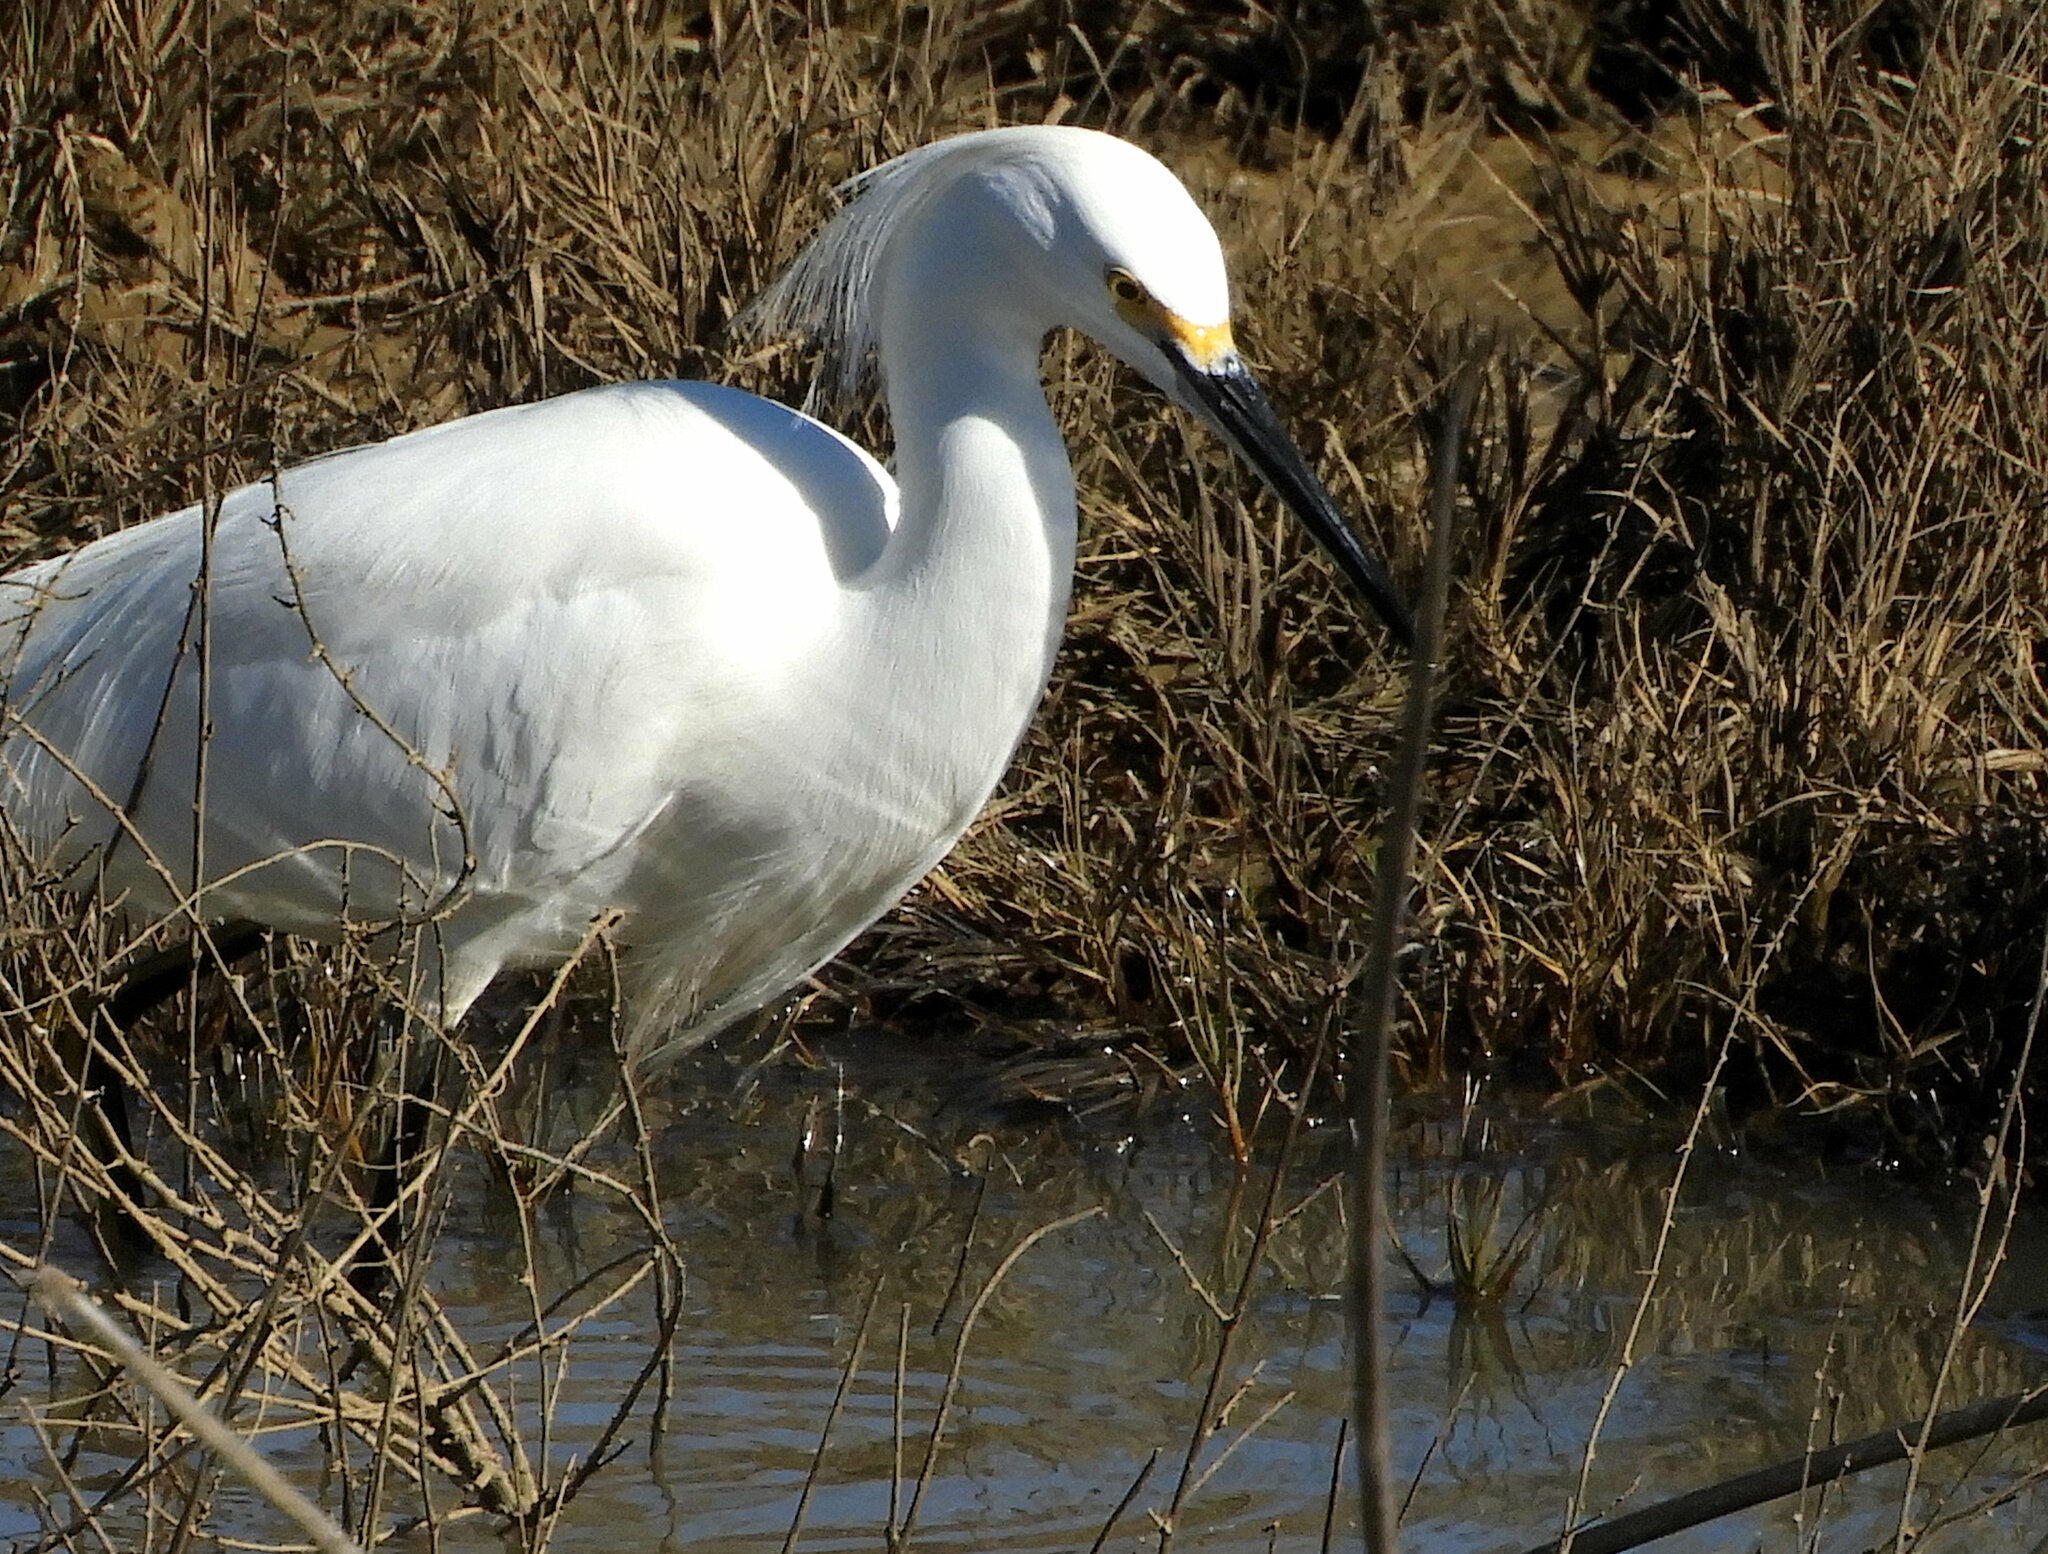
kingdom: Animalia
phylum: Chordata
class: Aves
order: Pelecaniformes
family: Ardeidae
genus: Egretta
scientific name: Egretta thula
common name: Snowy egret
